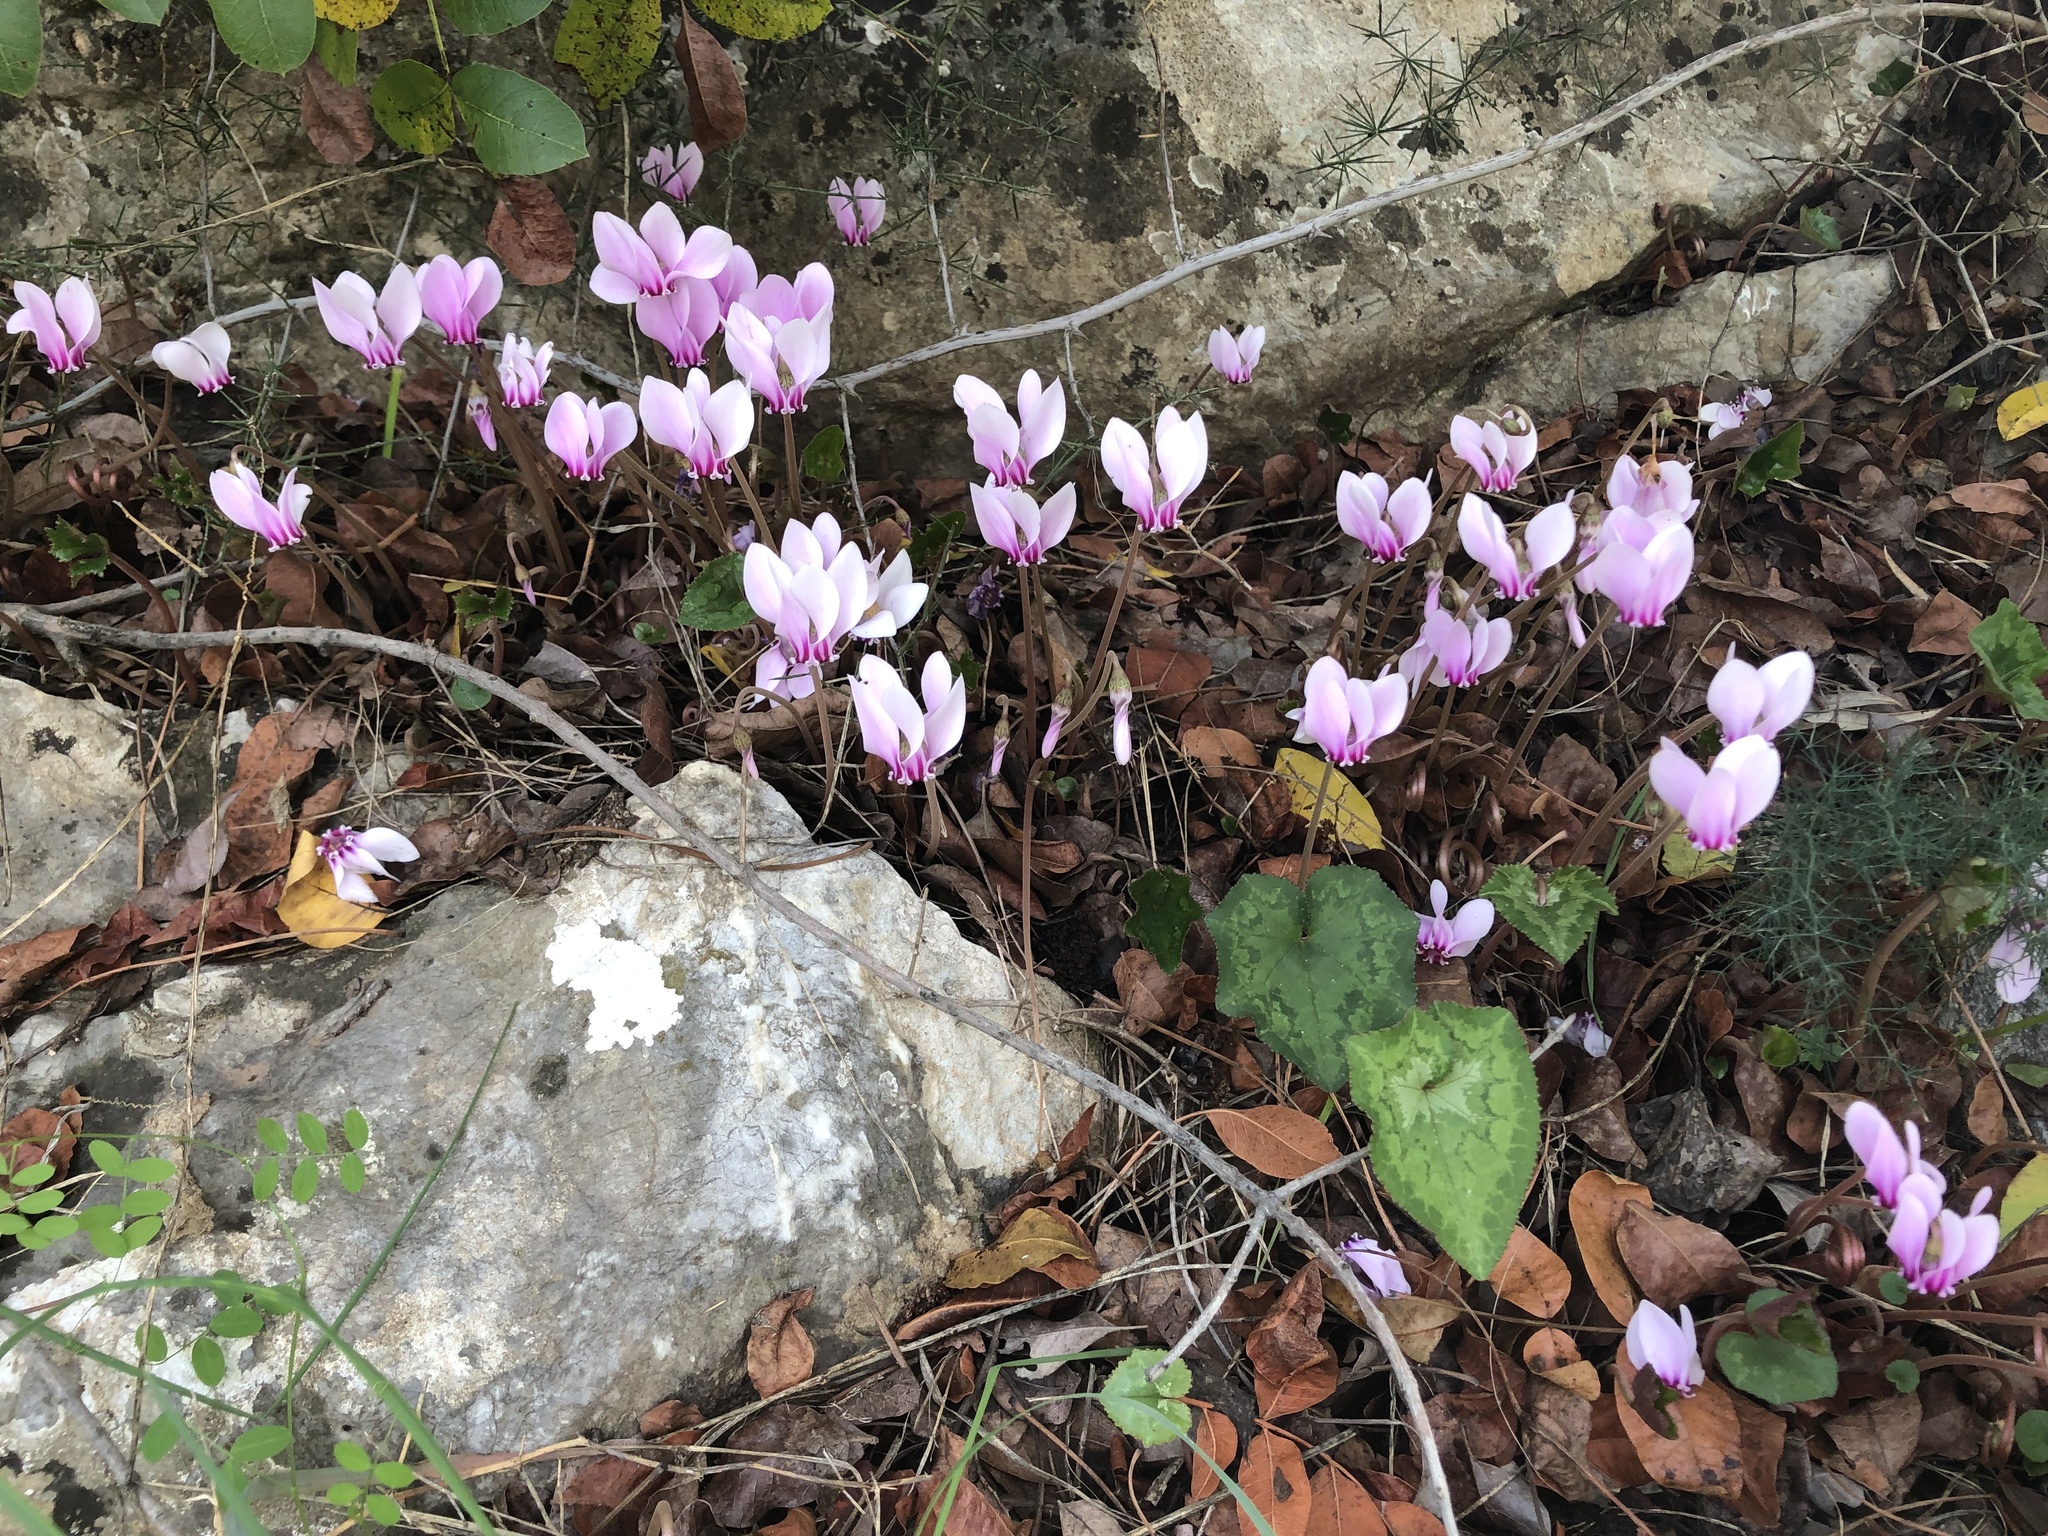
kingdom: Plantae
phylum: Tracheophyta
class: Magnoliopsida
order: Ericales
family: Primulaceae
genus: Cyclamen
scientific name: Cyclamen hederifolium
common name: Sowbread
